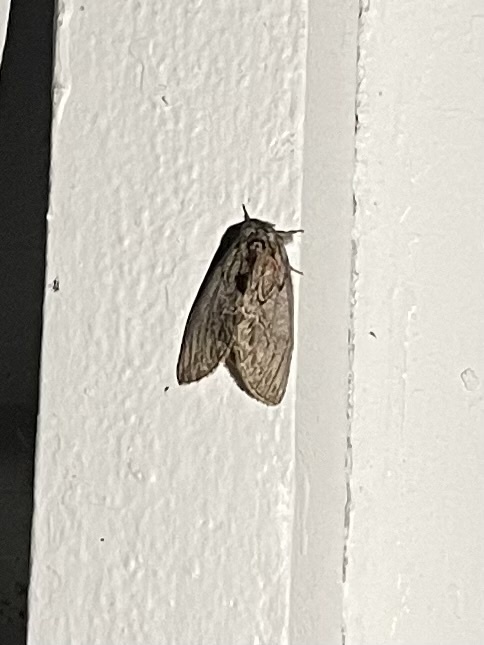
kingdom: Animalia
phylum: Arthropoda
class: Insecta
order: Lepidoptera
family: Notodontidae
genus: Peridea
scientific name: Peridea basitriens
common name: Oval-based prominent
